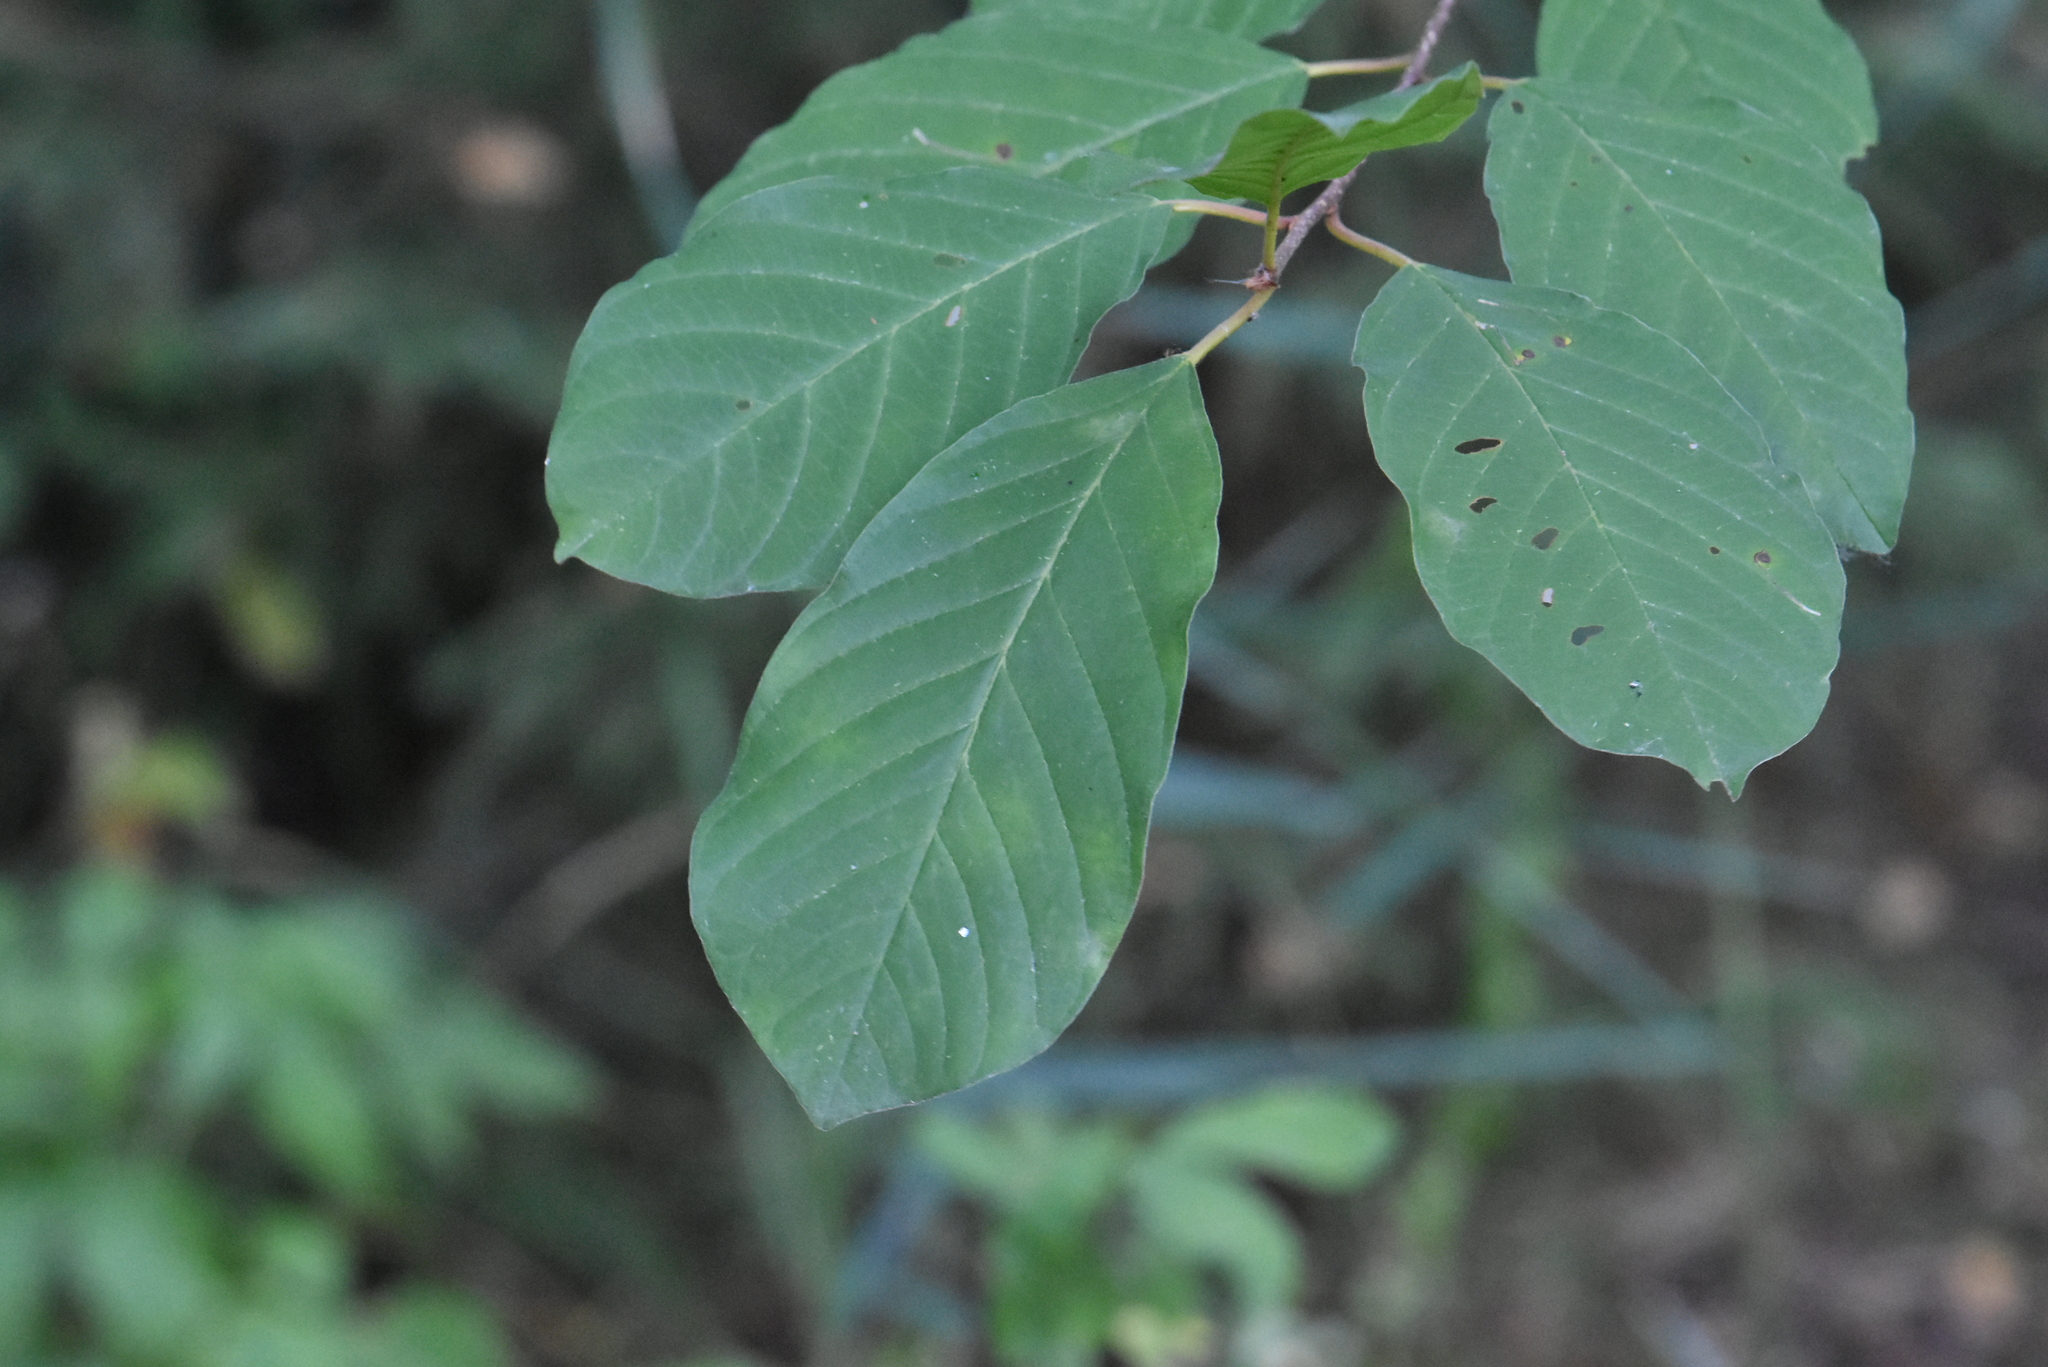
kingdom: Plantae
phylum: Tracheophyta
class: Magnoliopsida
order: Rosales
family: Rhamnaceae
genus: Frangula
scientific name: Frangula alnus
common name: Alder buckthorn
